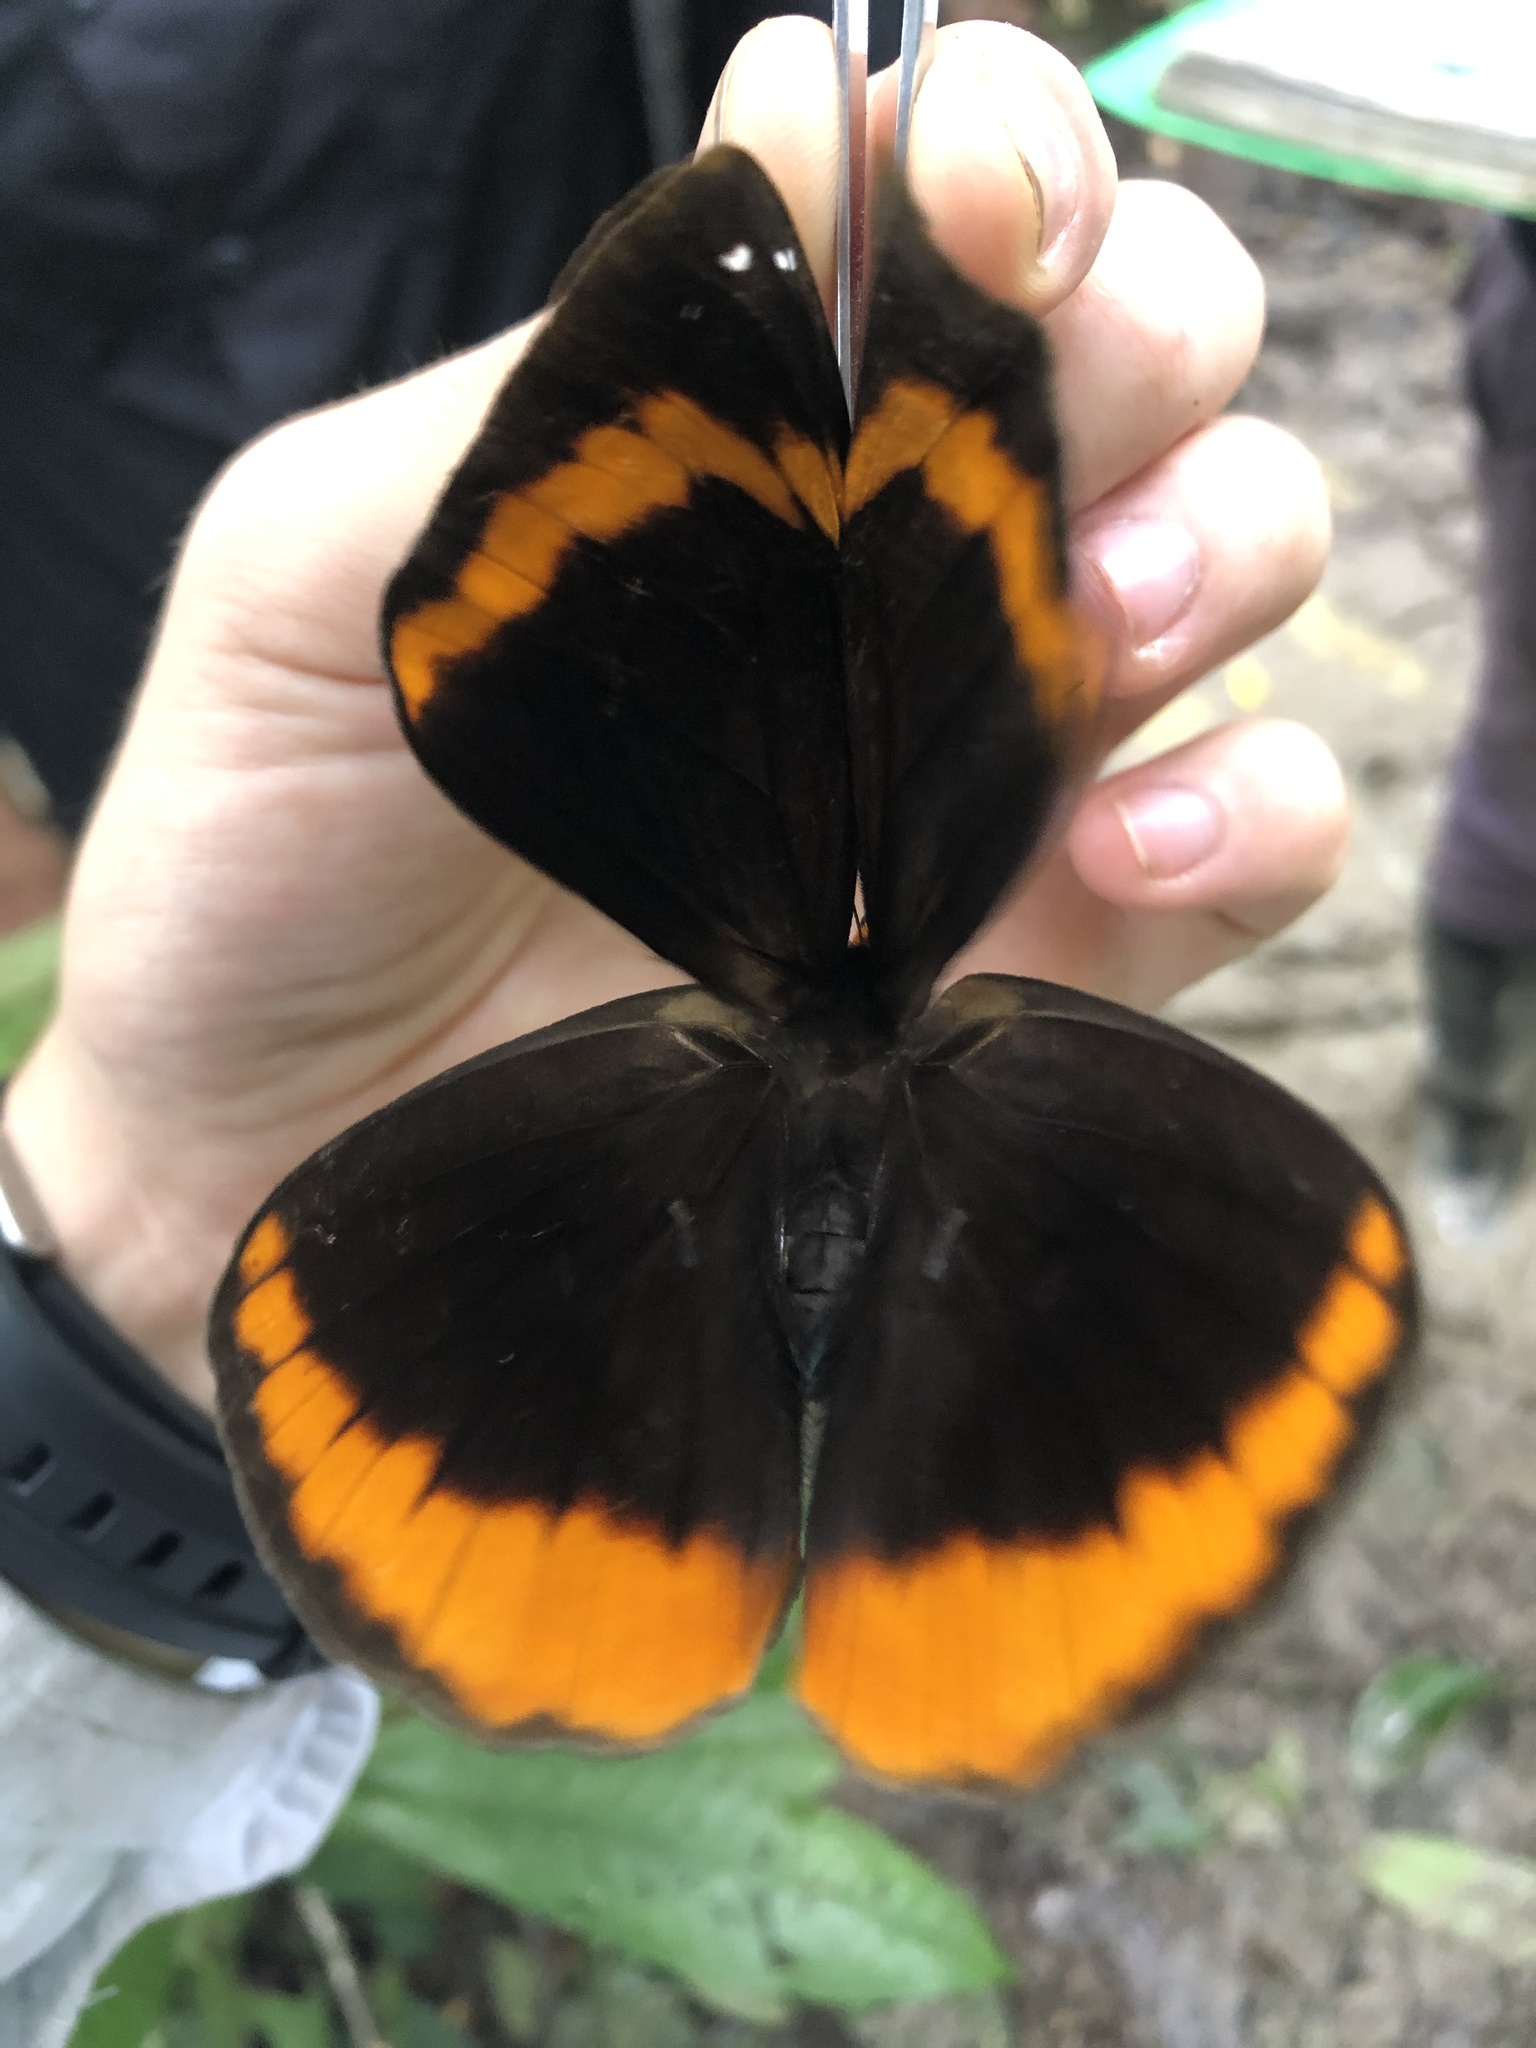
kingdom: Animalia
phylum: Arthropoda
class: Insecta
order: Lepidoptera
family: Nymphalidae
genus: Catoblepia
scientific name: Catoblepia berecynthia
